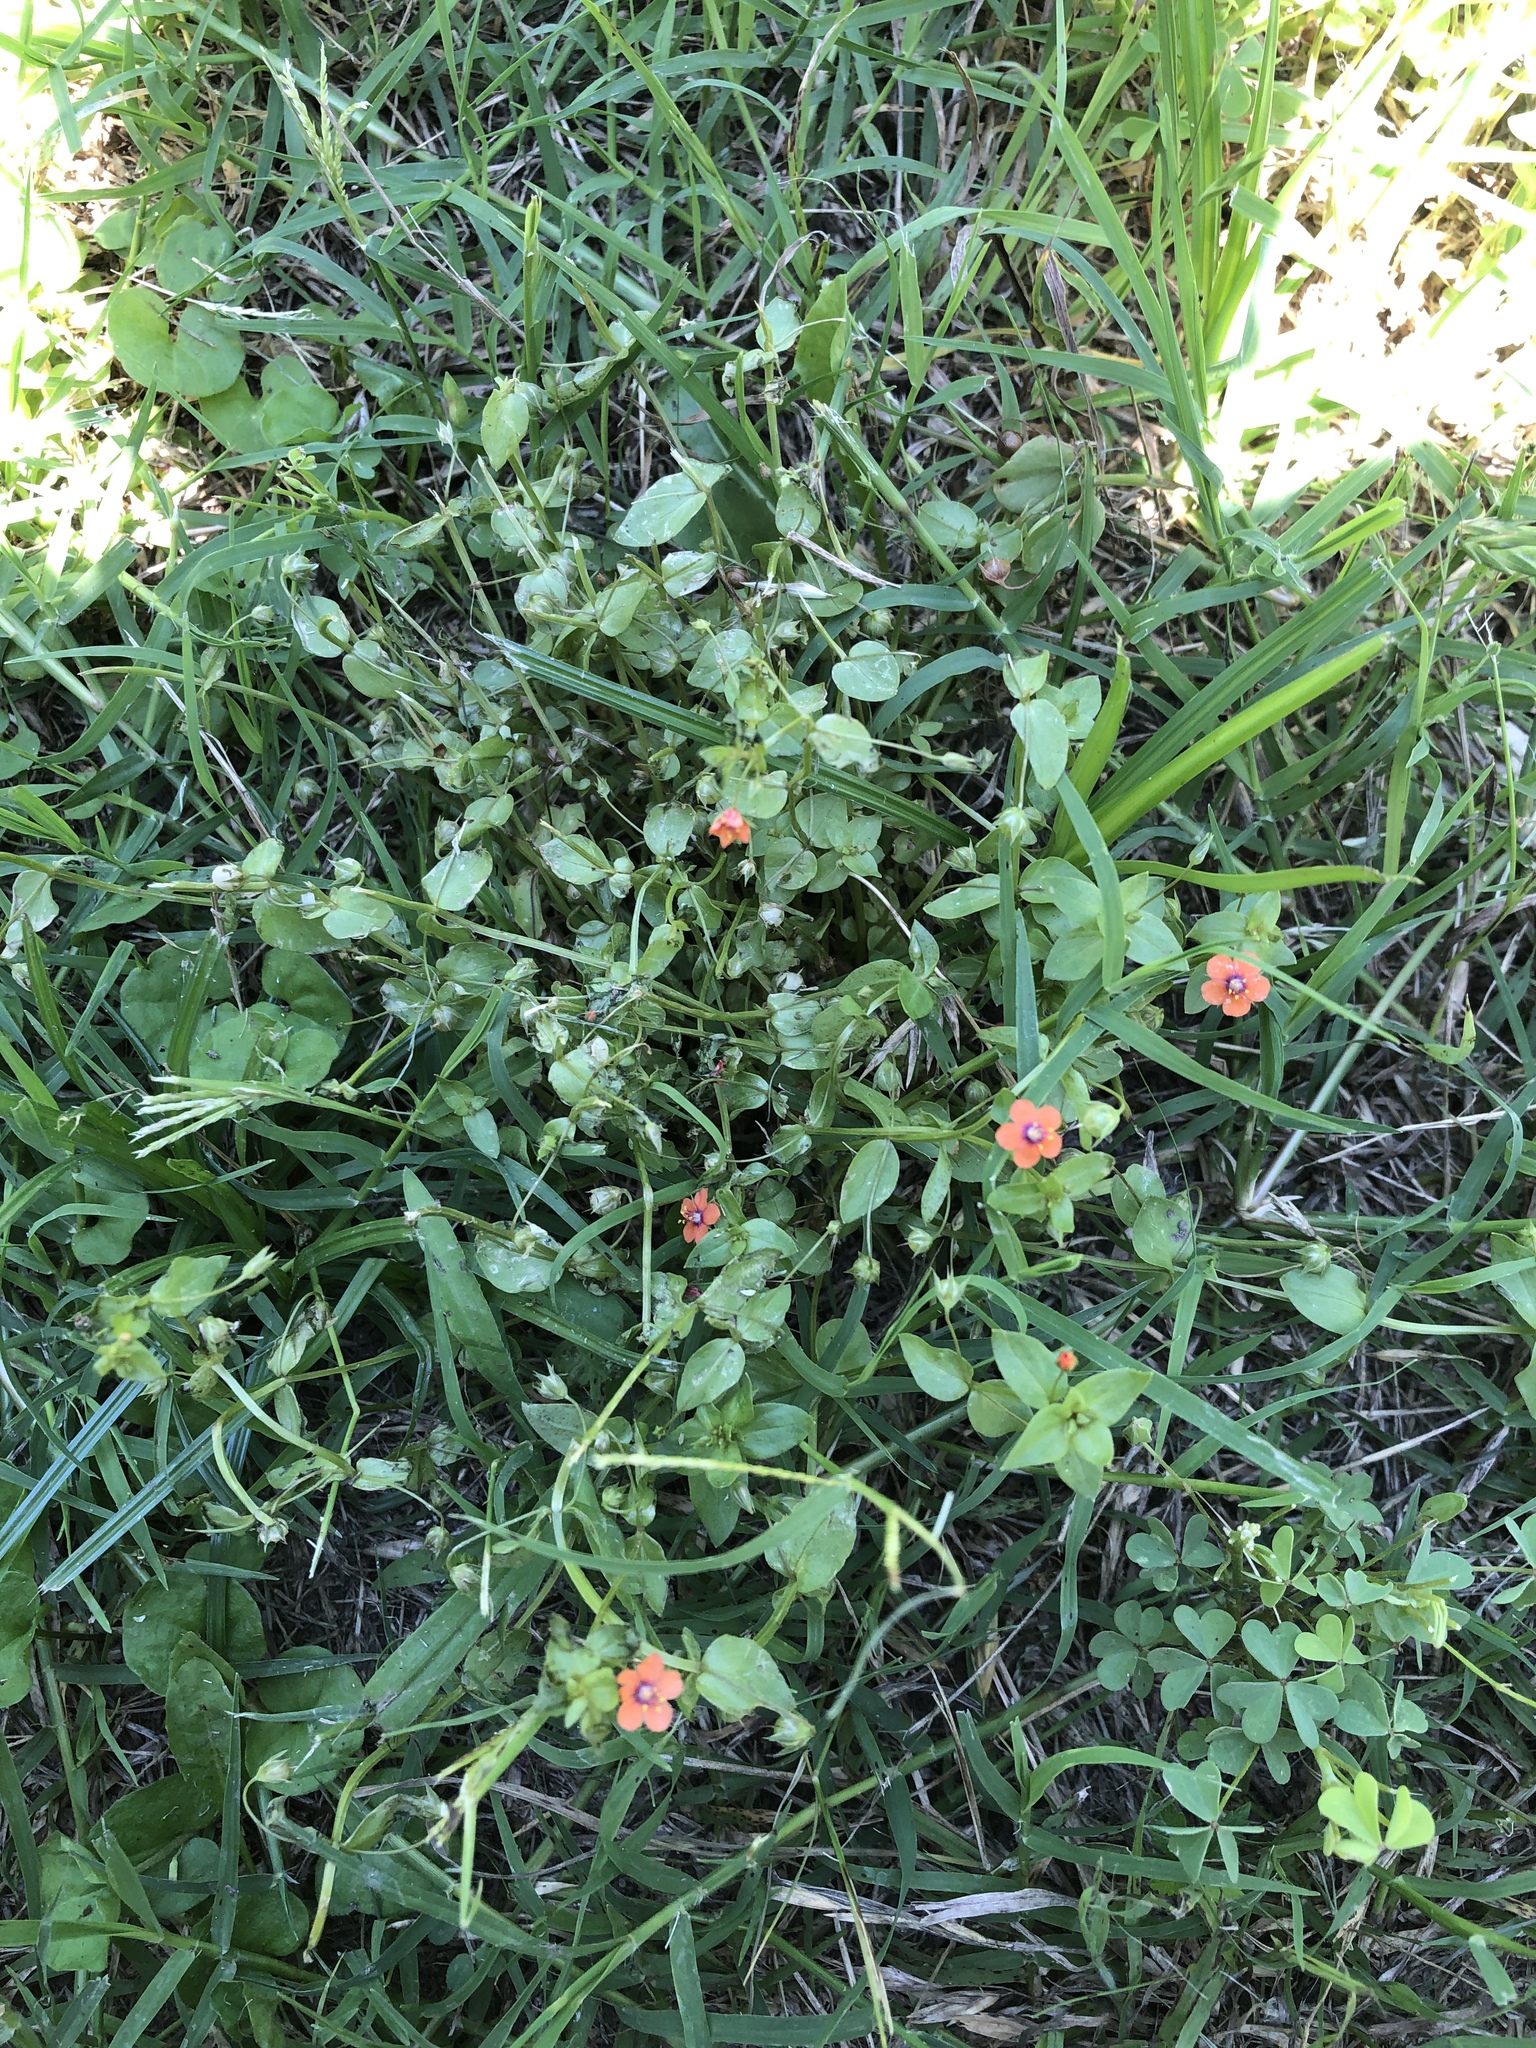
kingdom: Plantae
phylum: Tracheophyta
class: Magnoliopsida
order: Ericales
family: Primulaceae
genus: Lysimachia
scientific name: Lysimachia arvensis
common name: Scarlet pimpernel
